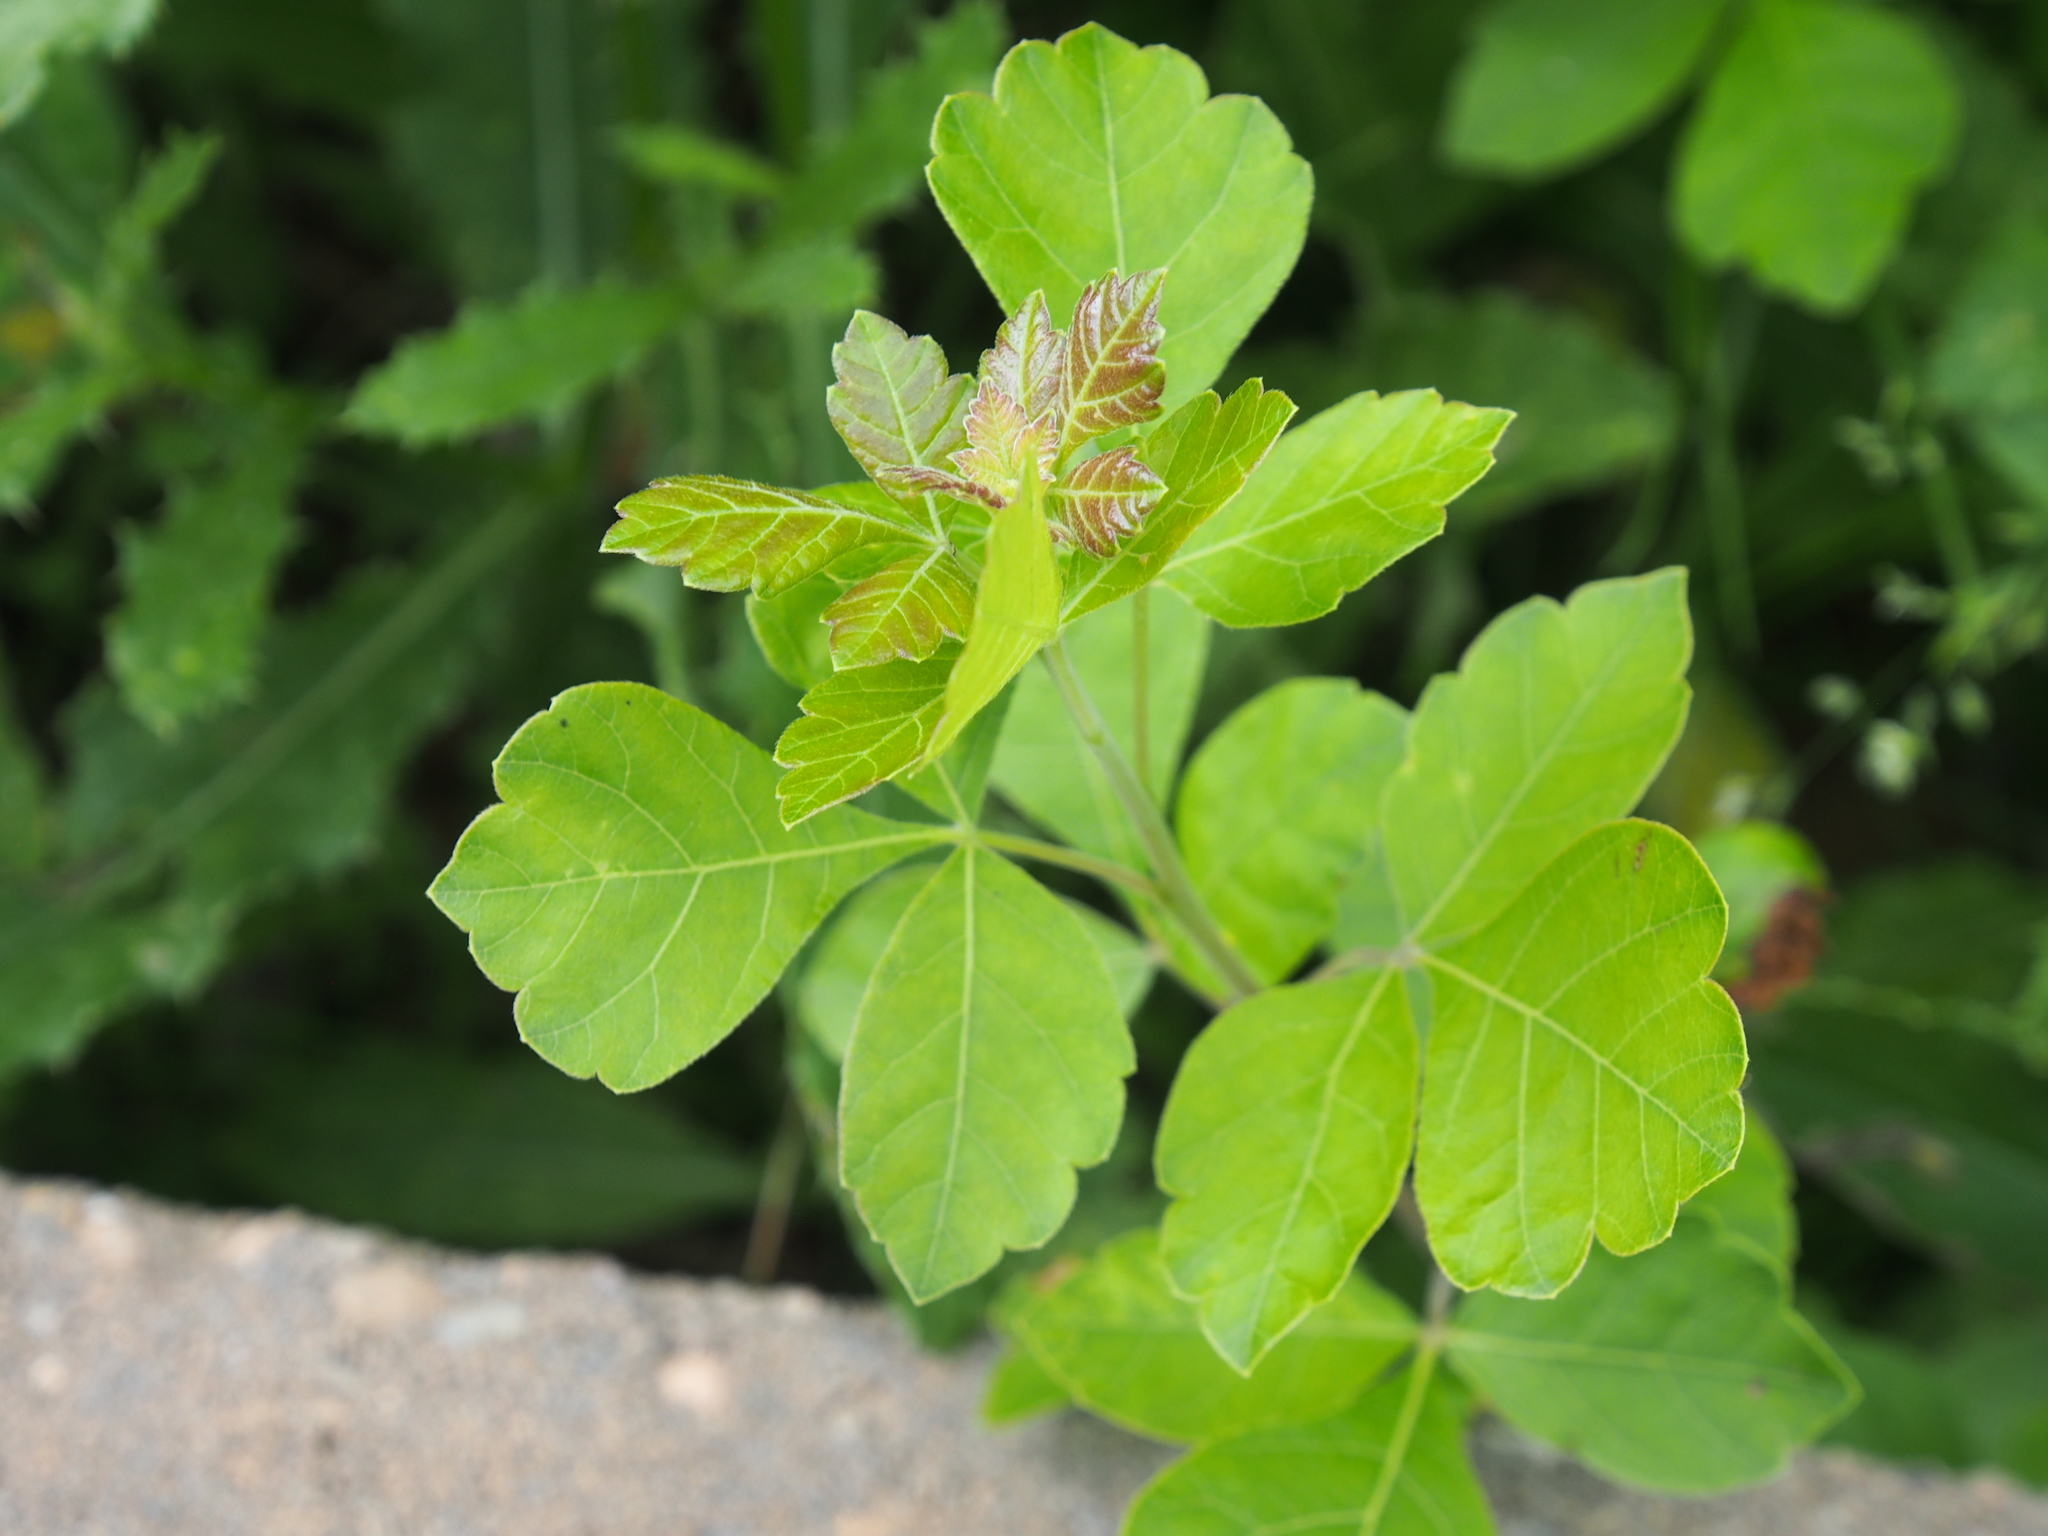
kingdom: Plantae
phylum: Tracheophyta
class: Magnoliopsida
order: Sapindales
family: Anacardiaceae
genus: Rhus
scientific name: Rhus aromatica
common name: Aromatic sumac
